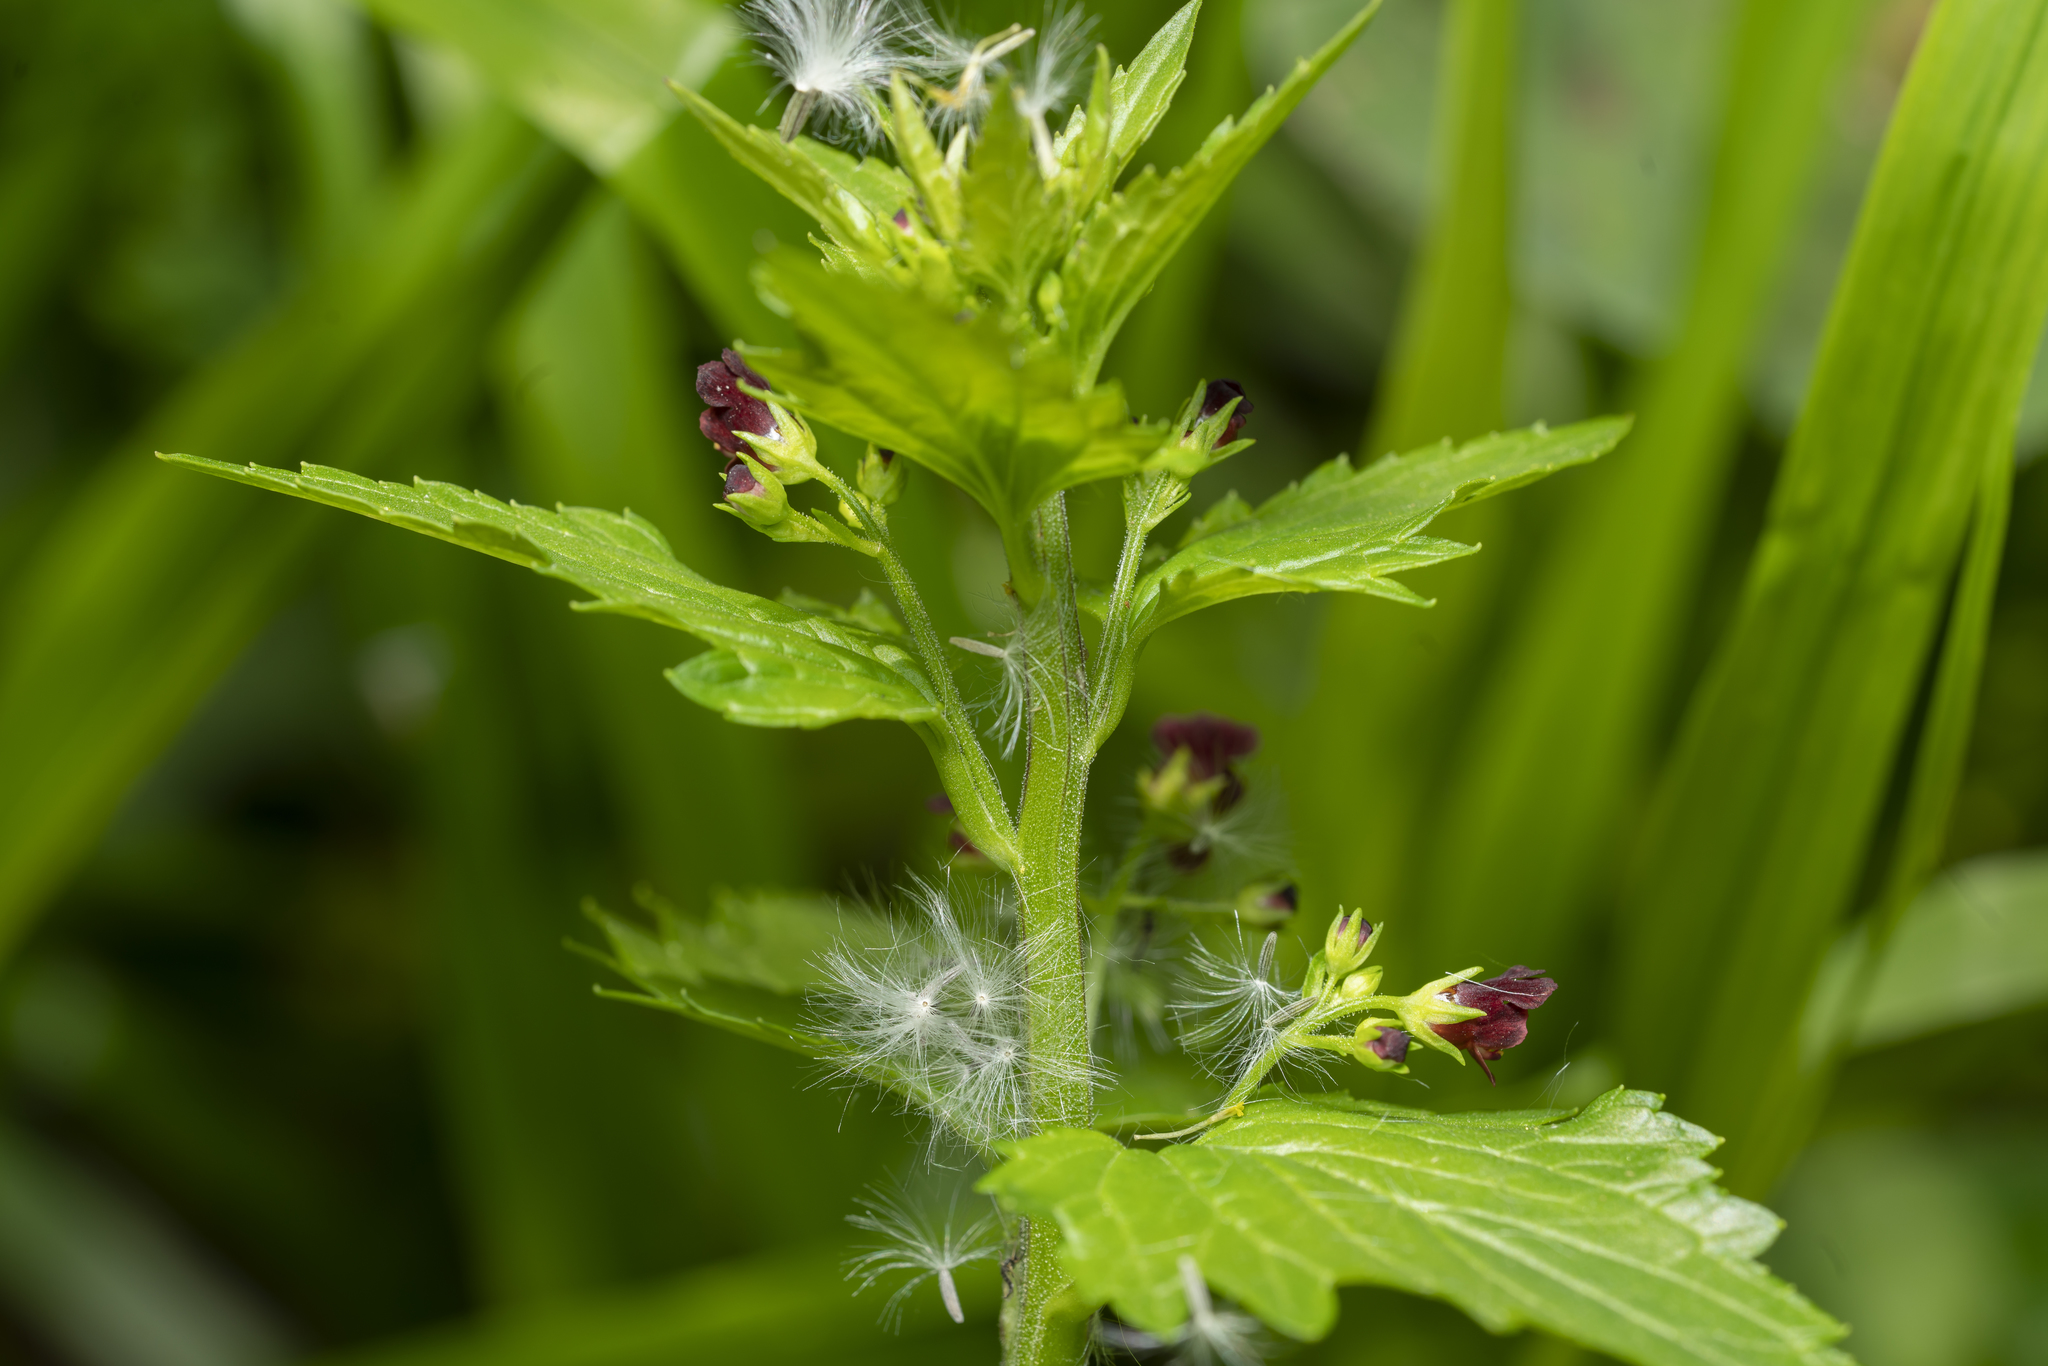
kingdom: Plantae
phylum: Tracheophyta
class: Magnoliopsida
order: Lamiales
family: Scrophulariaceae
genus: Scrophularia
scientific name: Scrophularia peregrina
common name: Mediterranean figwort
